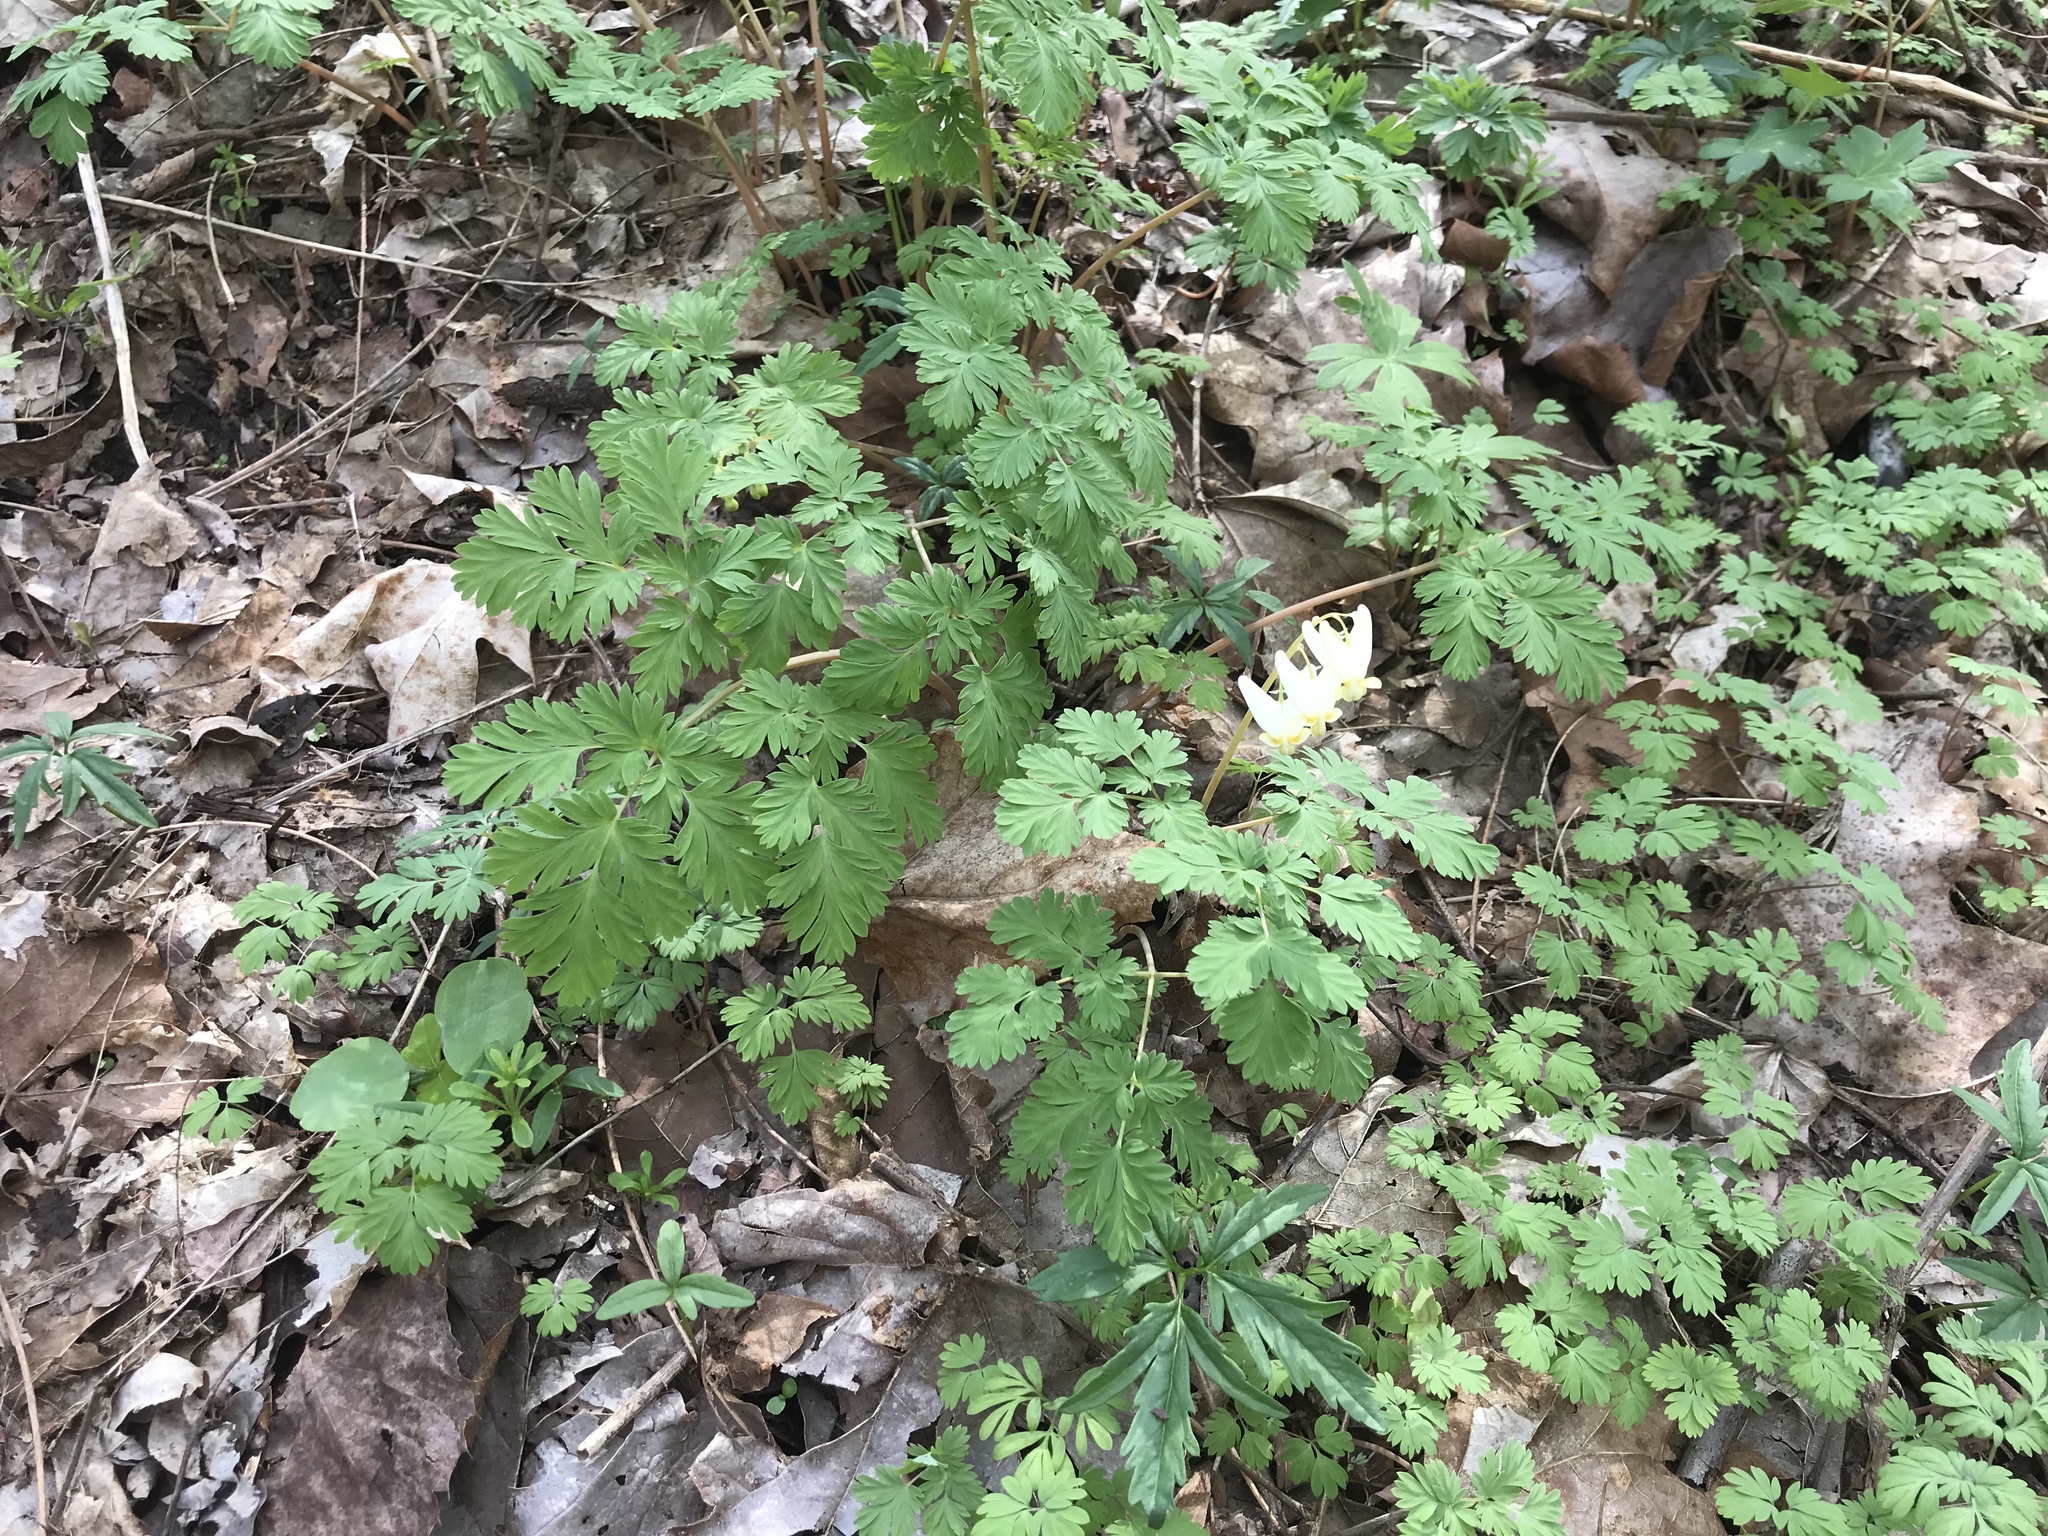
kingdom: Plantae
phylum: Tracheophyta
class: Magnoliopsida
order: Ranunculales
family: Papaveraceae
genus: Dicentra
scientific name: Dicentra cucullaria
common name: Dutchman's breeches
